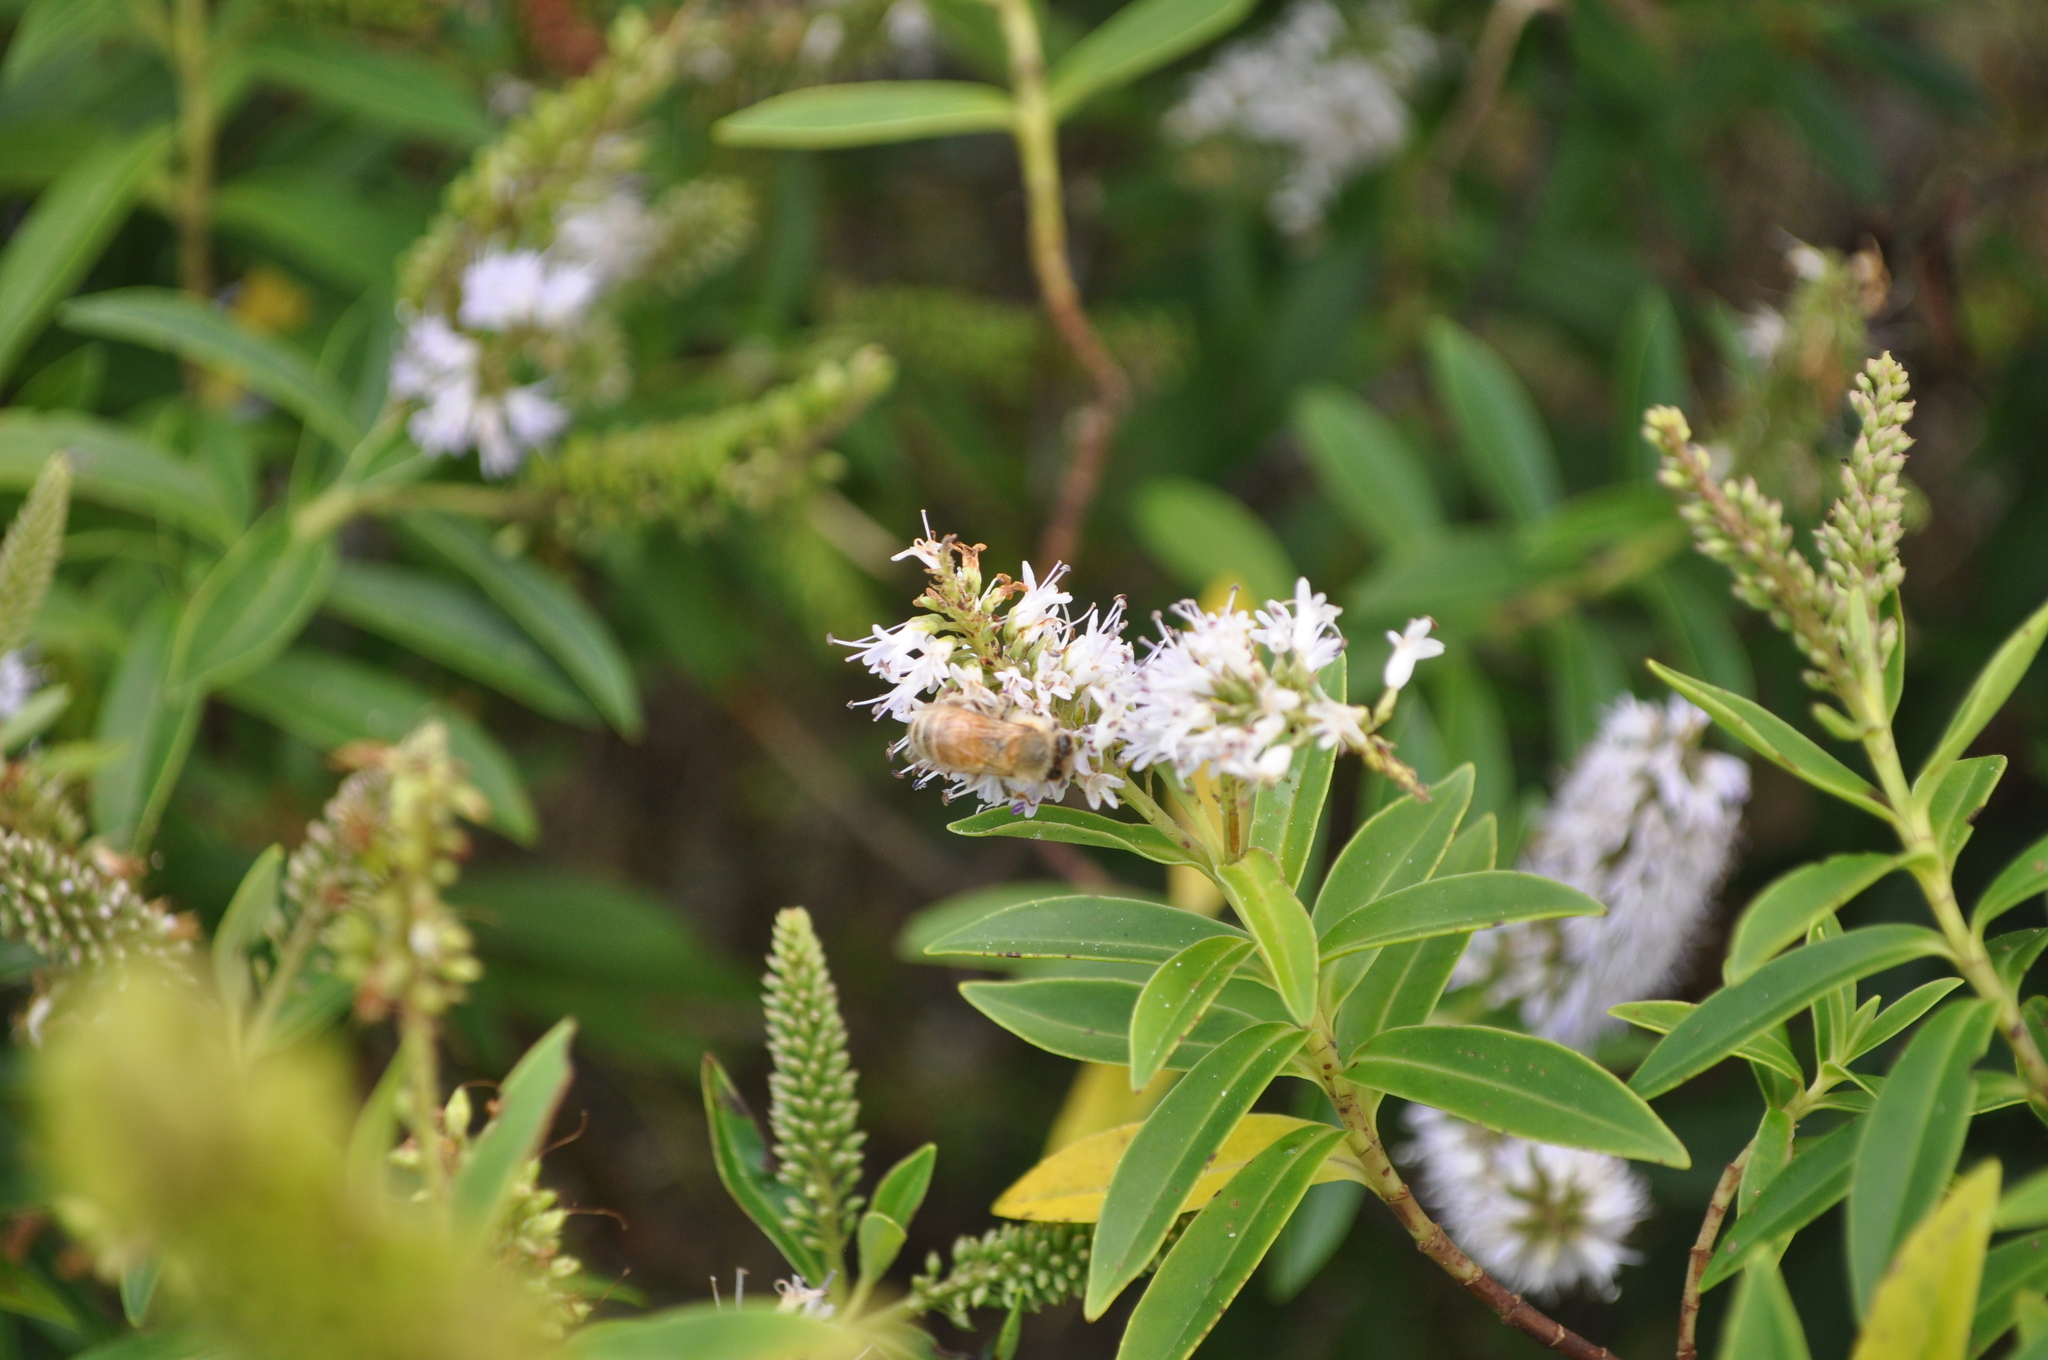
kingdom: Animalia
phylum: Arthropoda
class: Insecta
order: Hymenoptera
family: Apidae
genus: Apis
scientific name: Apis mellifera
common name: Honey bee
